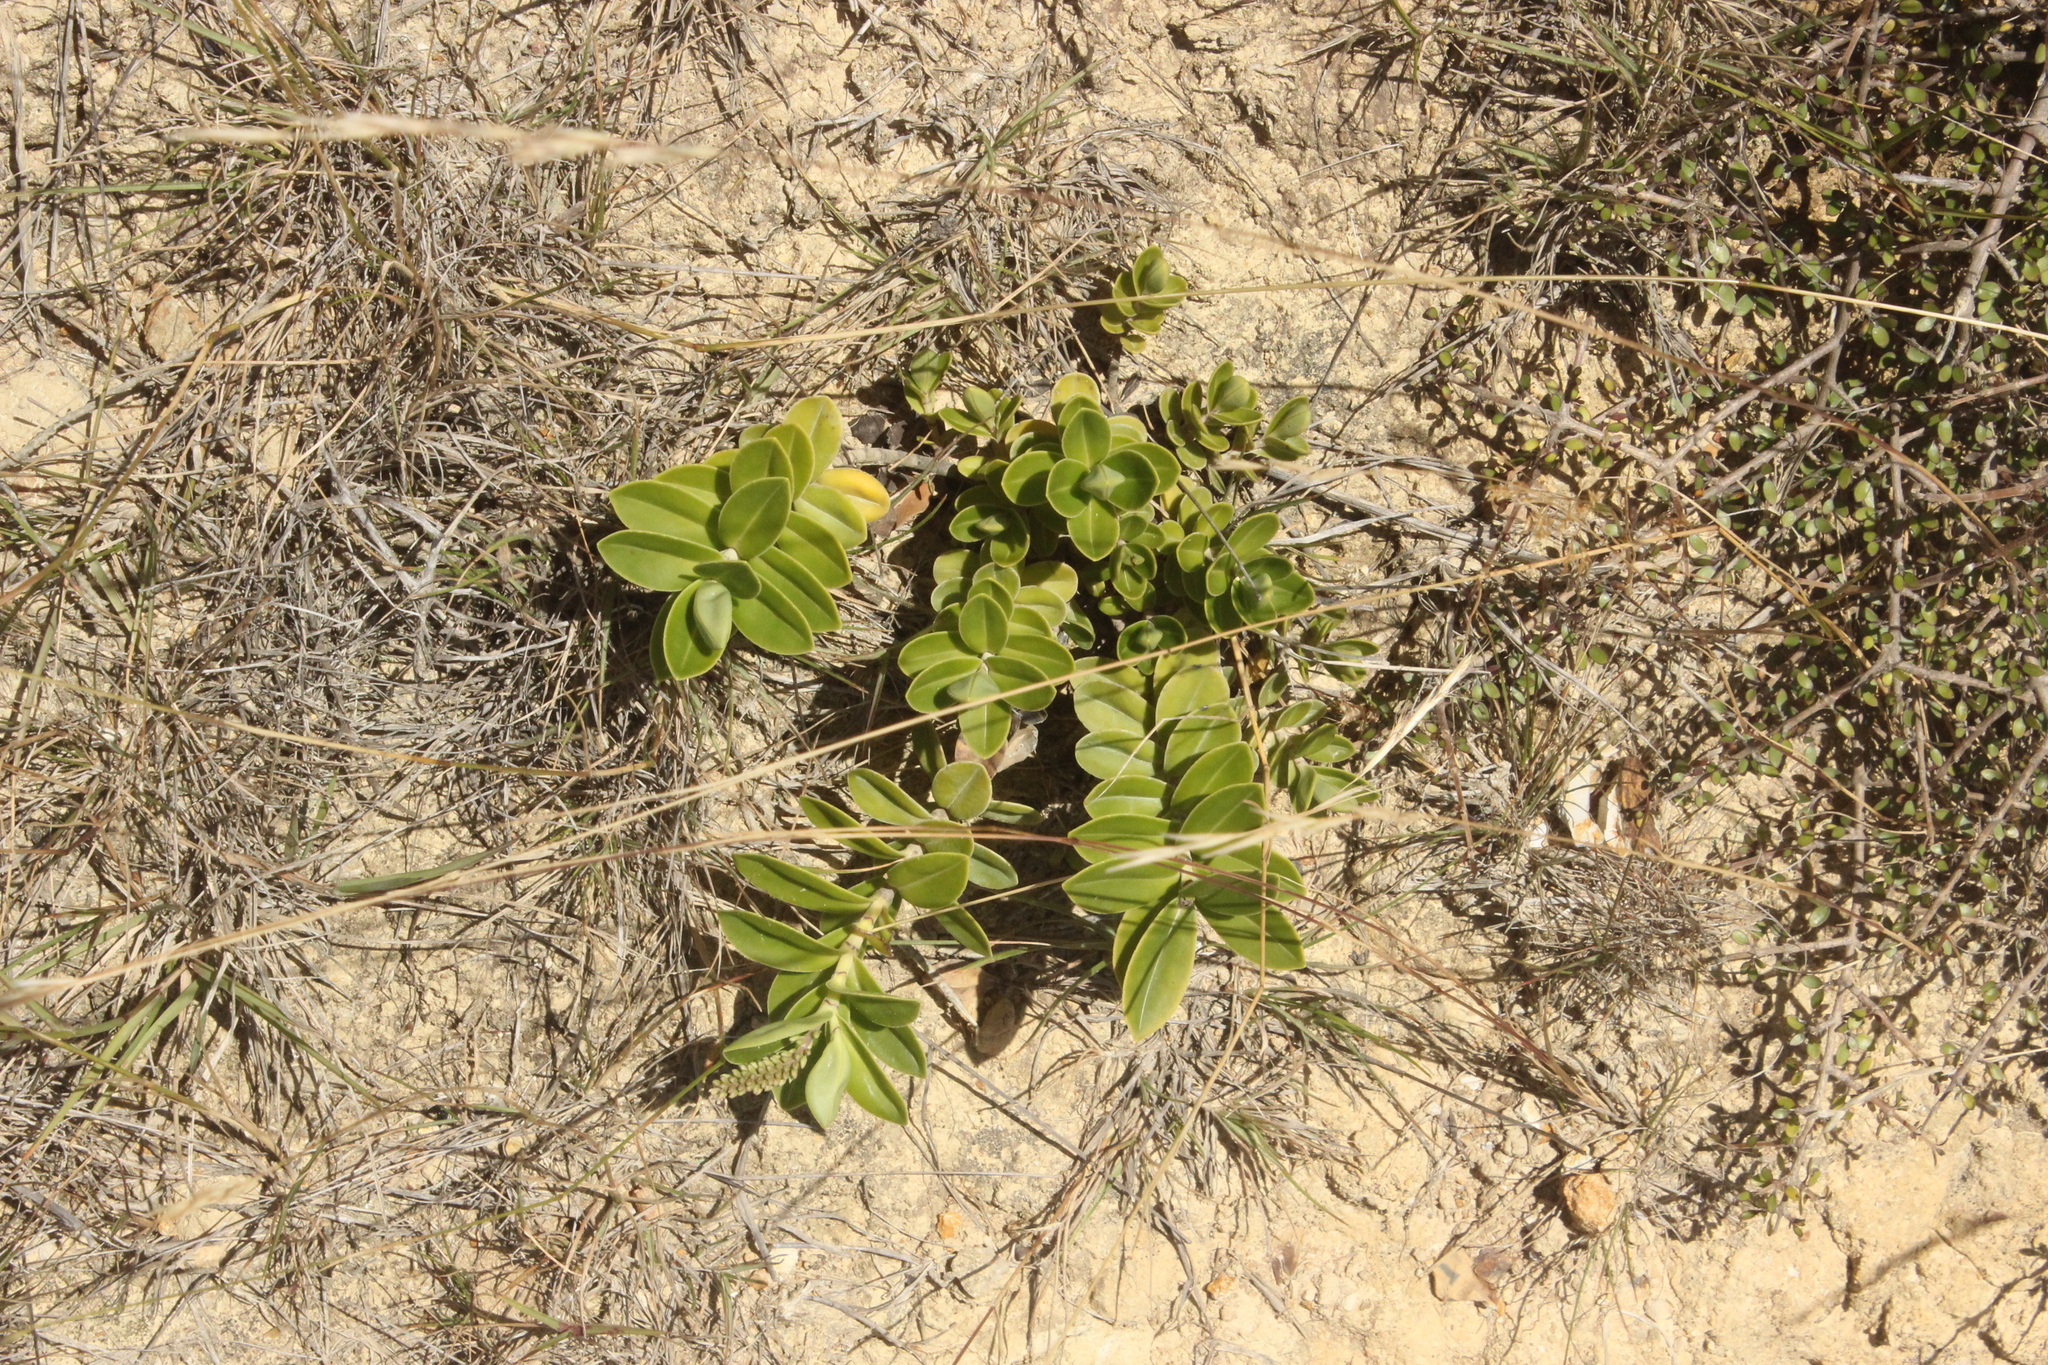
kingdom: Plantae
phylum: Tracheophyta
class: Magnoliopsida
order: Lamiales
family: Plantaginaceae
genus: Veronica
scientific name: Veronica stricta
